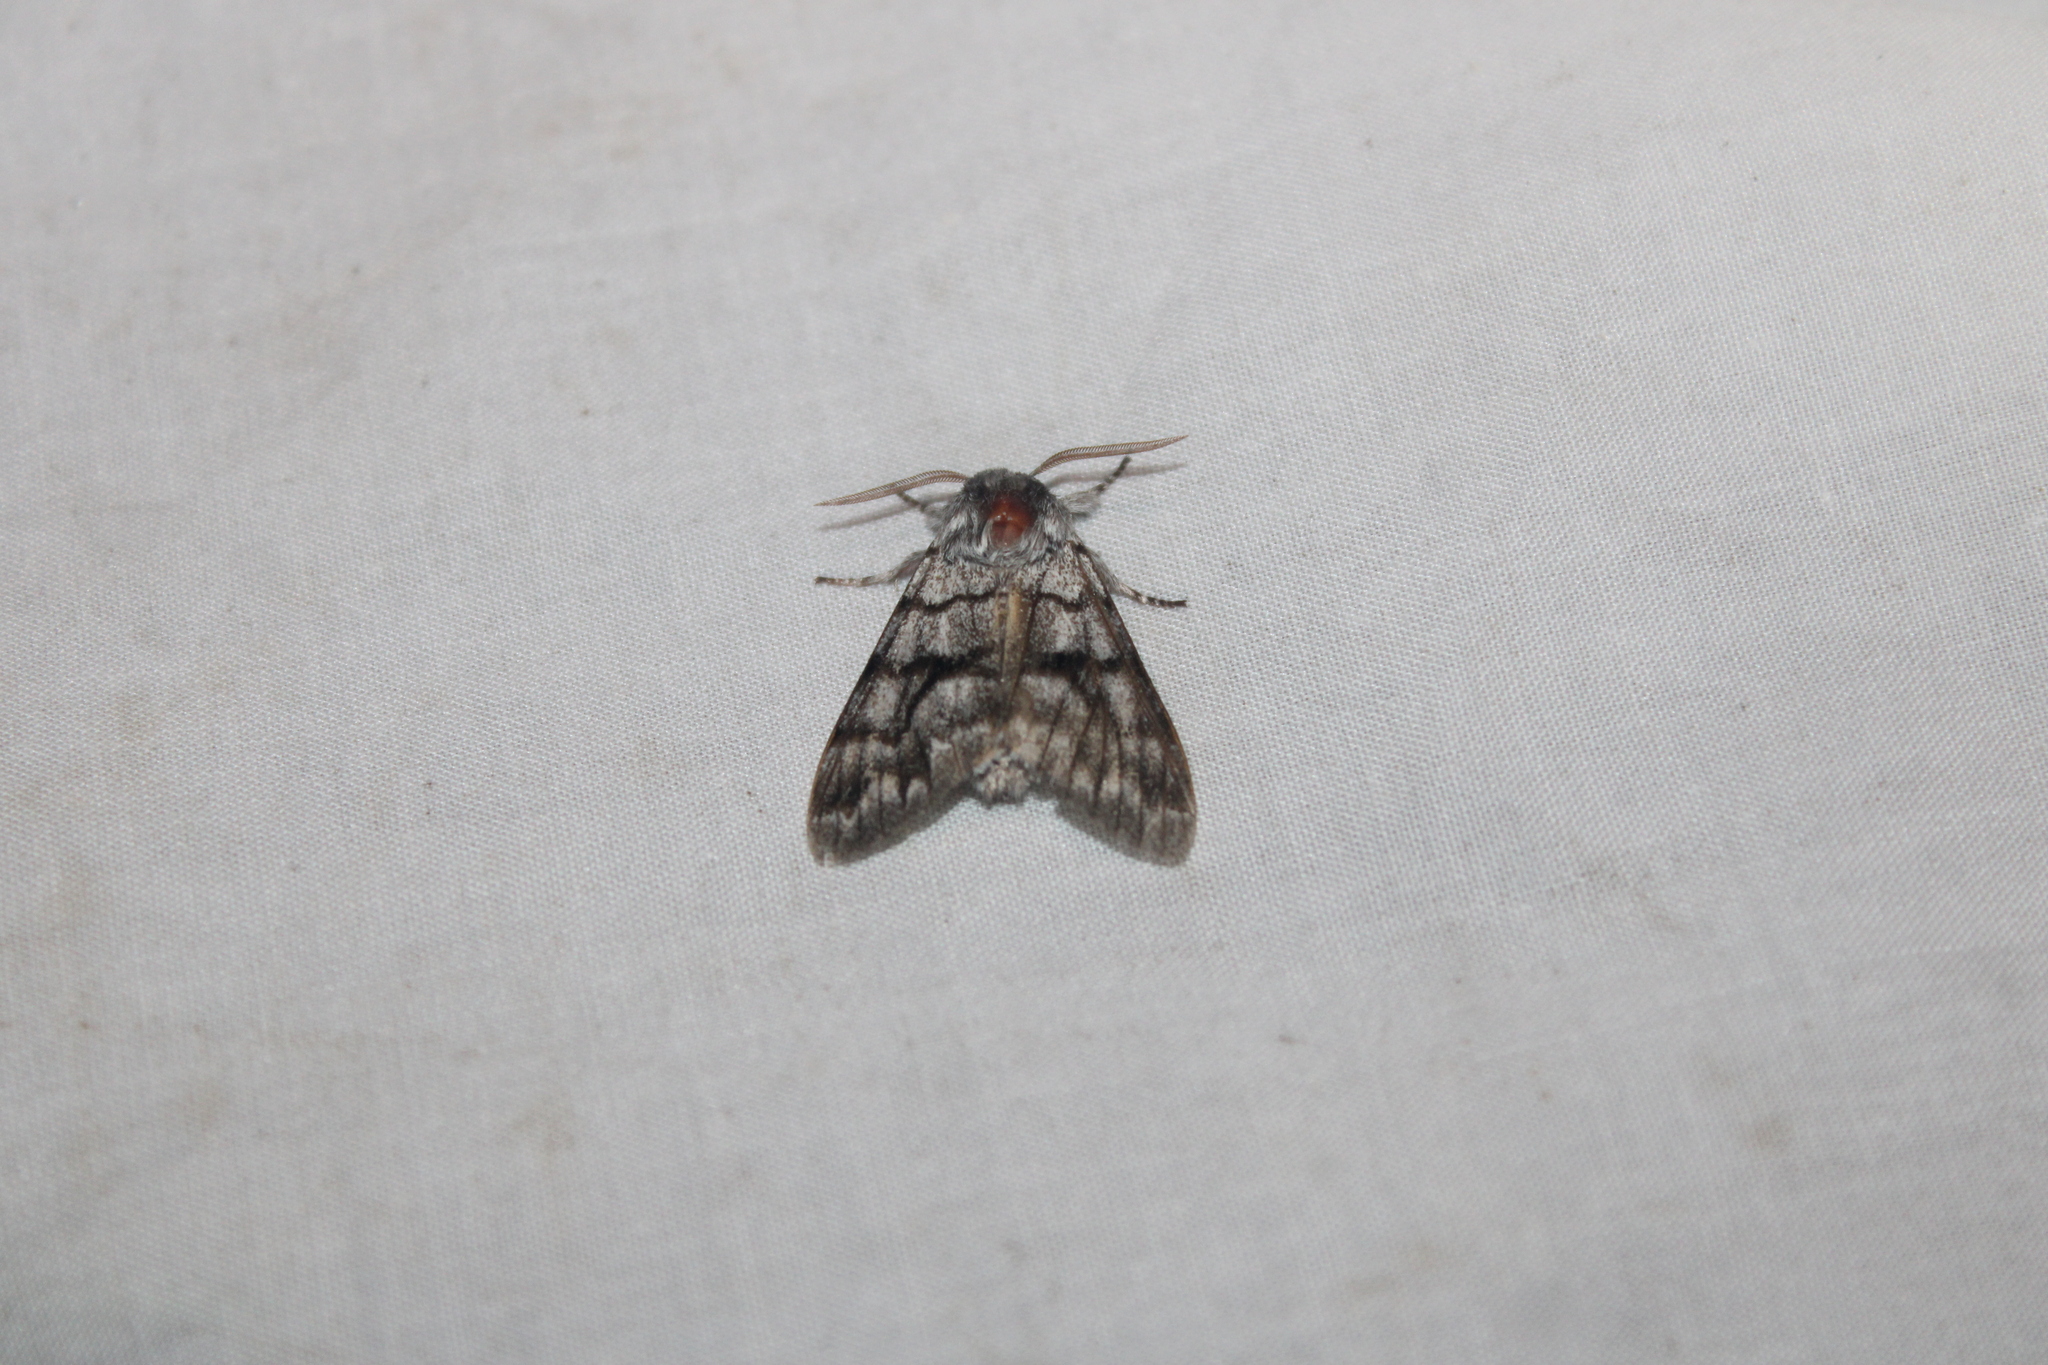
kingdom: Animalia
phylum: Arthropoda
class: Insecta
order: Lepidoptera
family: Noctuidae
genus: Panthea
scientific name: Panthea furcilla
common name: Eastern panthea moth
